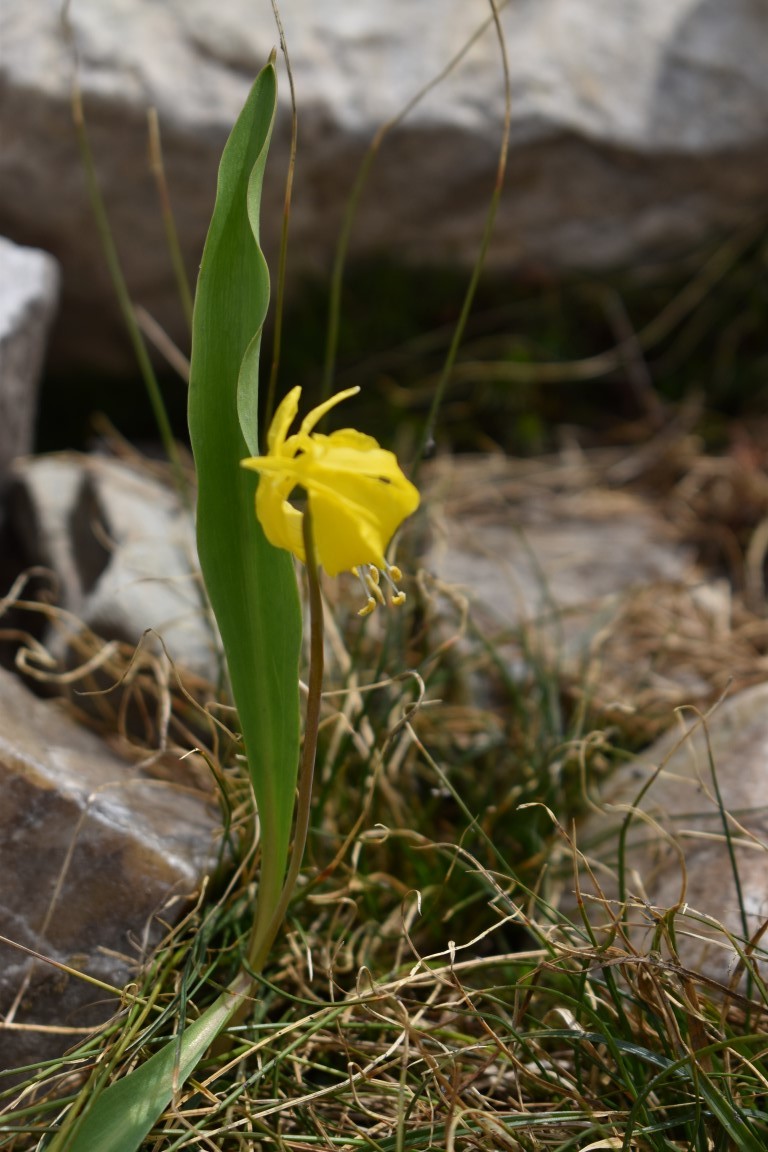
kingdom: Plantae
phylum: Tracheophyta
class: Liliopsida
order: Liliales
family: Liliaceae
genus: Erythronium
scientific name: Erythronium grandiflorum
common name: Avalanche-lily
